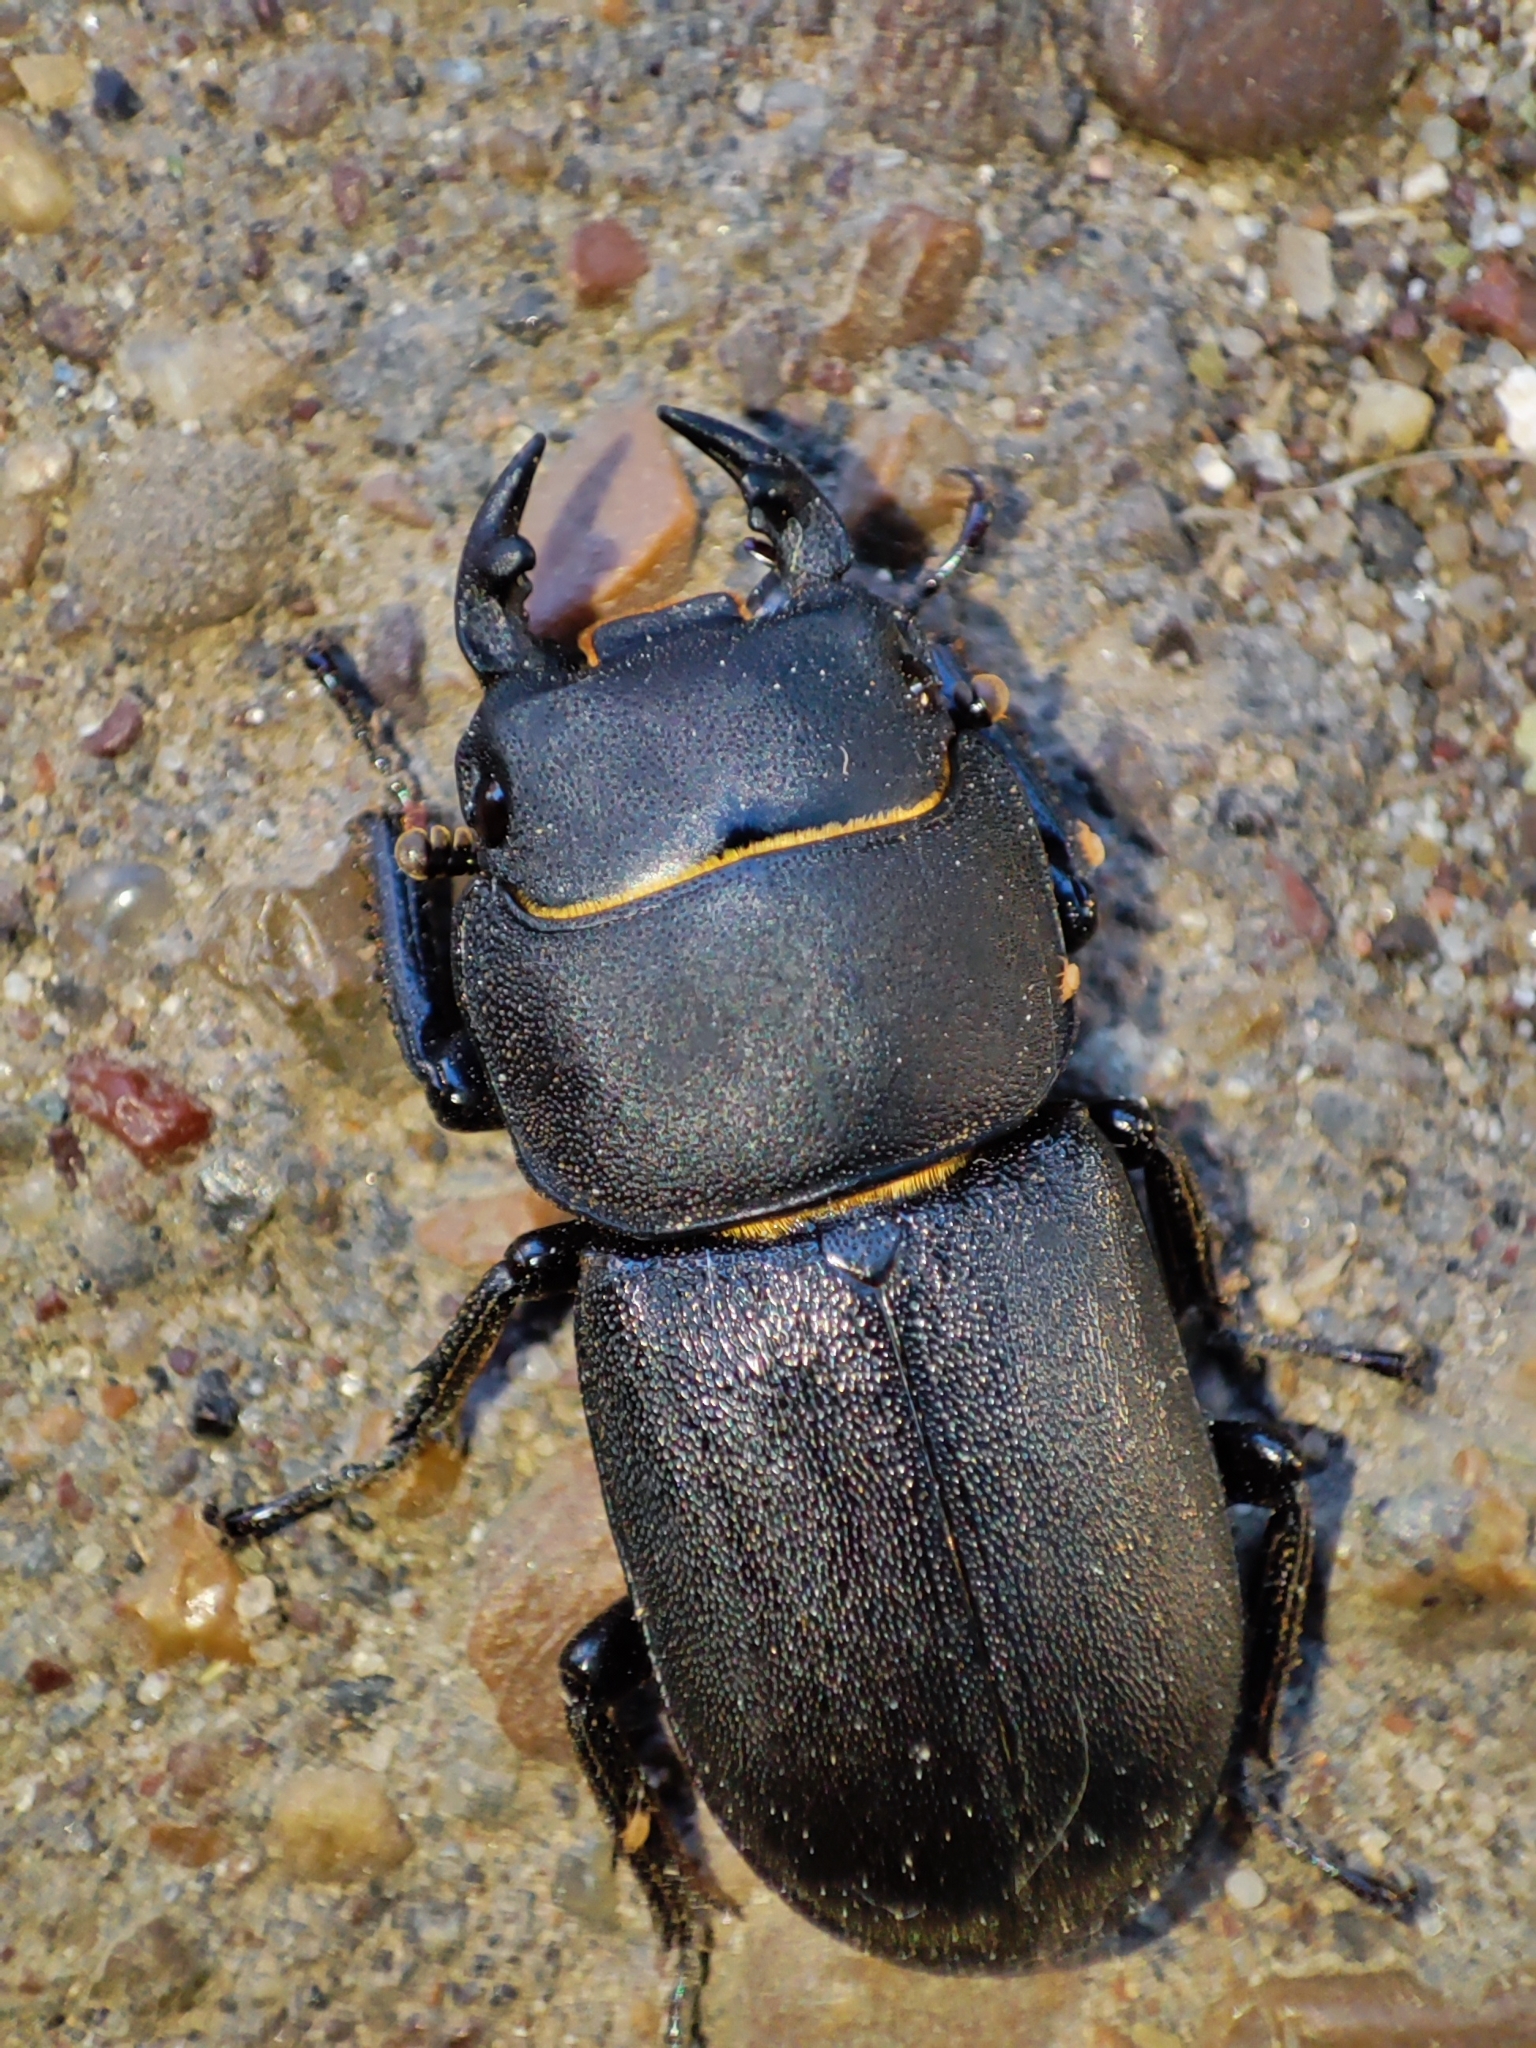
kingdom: Animalia
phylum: Arthropoda
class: Insecta
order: Coleoptera
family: Lucanidae
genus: Dorcus
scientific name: Dorcus parallelipipedus
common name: Lesser stag beetle
